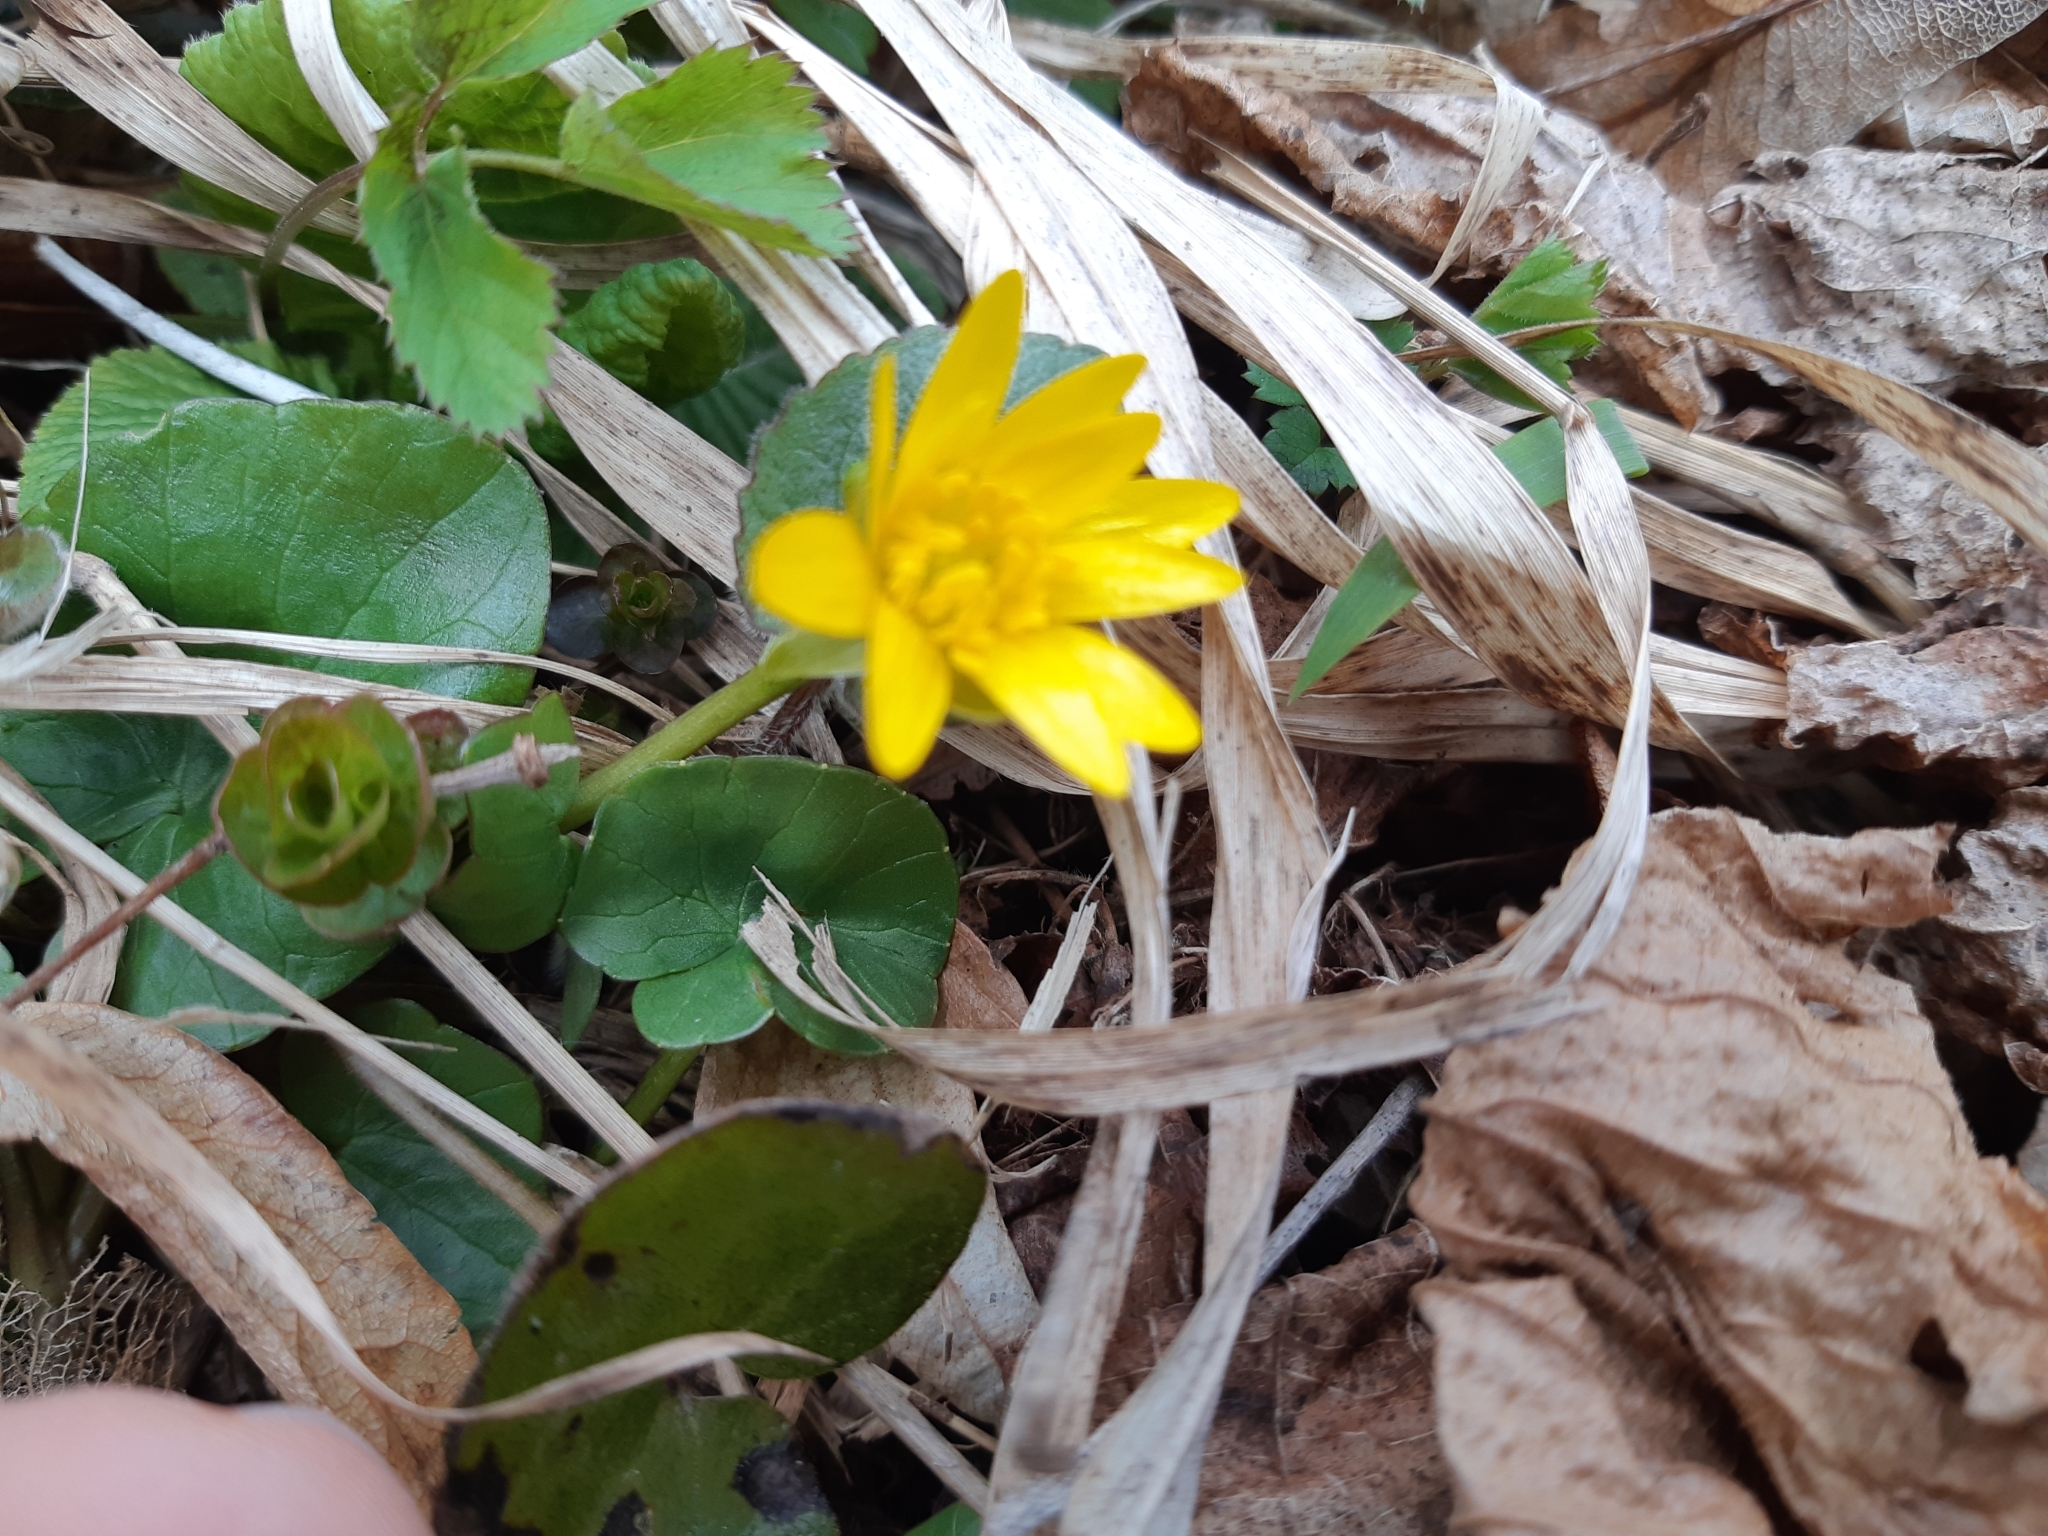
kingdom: Plantae
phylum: Tracheophyta
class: Magnoliopsida
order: Ranunculales
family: Ranunculaceae
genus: Ficaria
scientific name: Ficaria verna
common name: Lesser celandine
